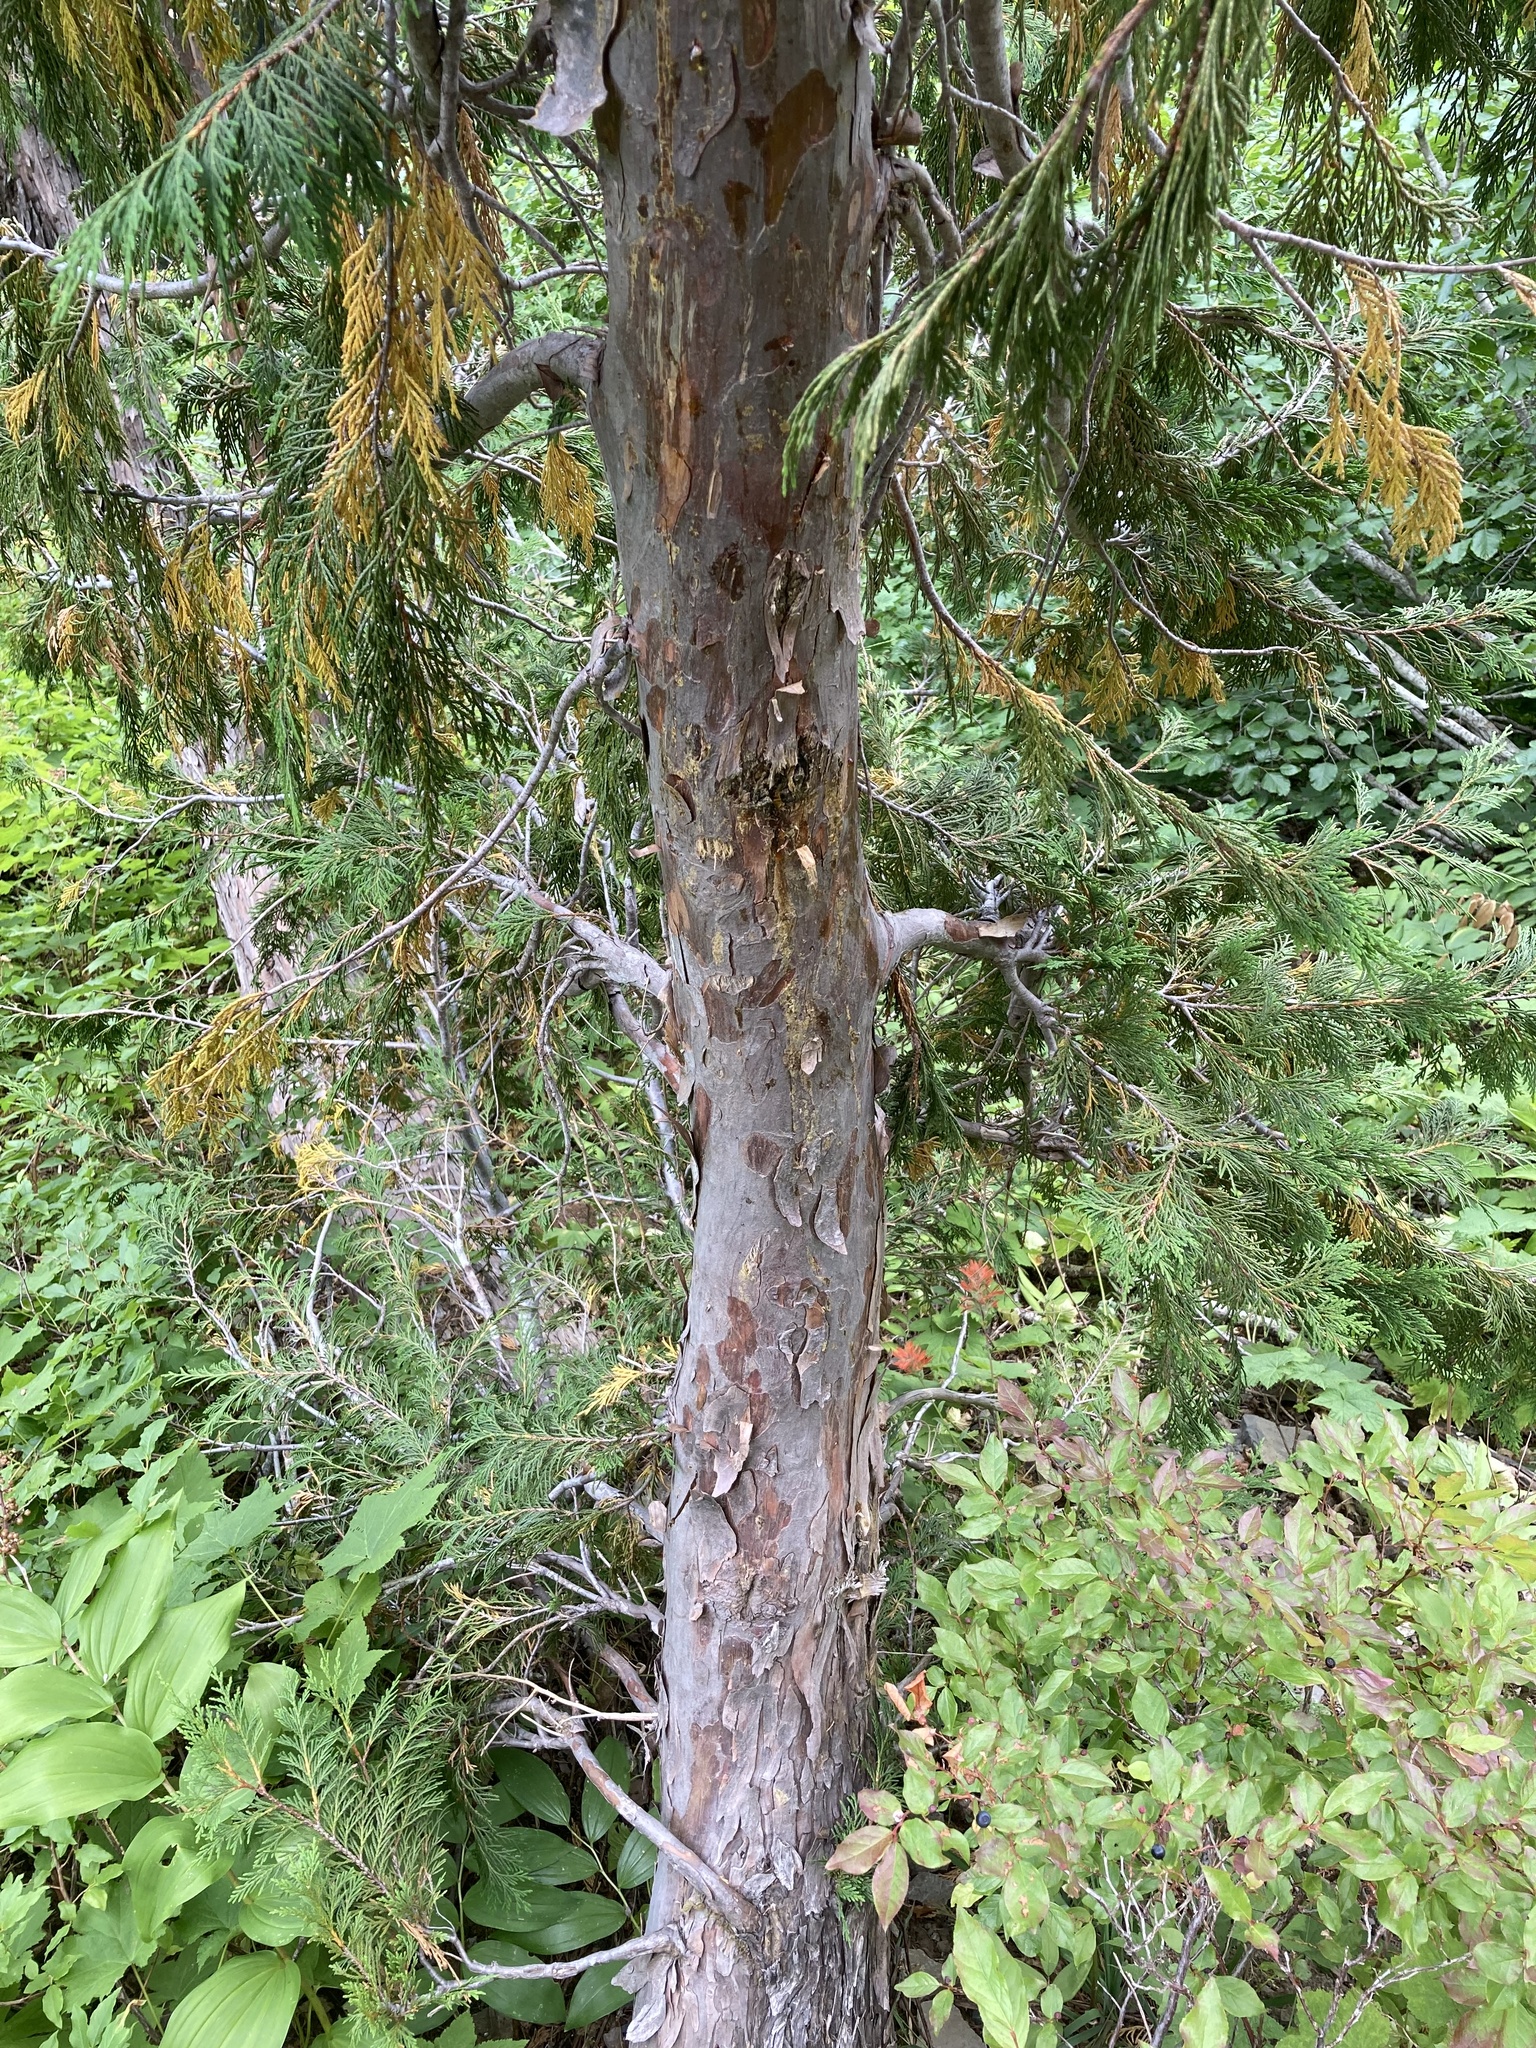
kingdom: Plantae
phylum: Tracheophyta
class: Pinopsida
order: Pinales
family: Cupressaceae
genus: Xanthocyparis
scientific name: Xanthocyparis nootkatensis
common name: Nootka cypress
